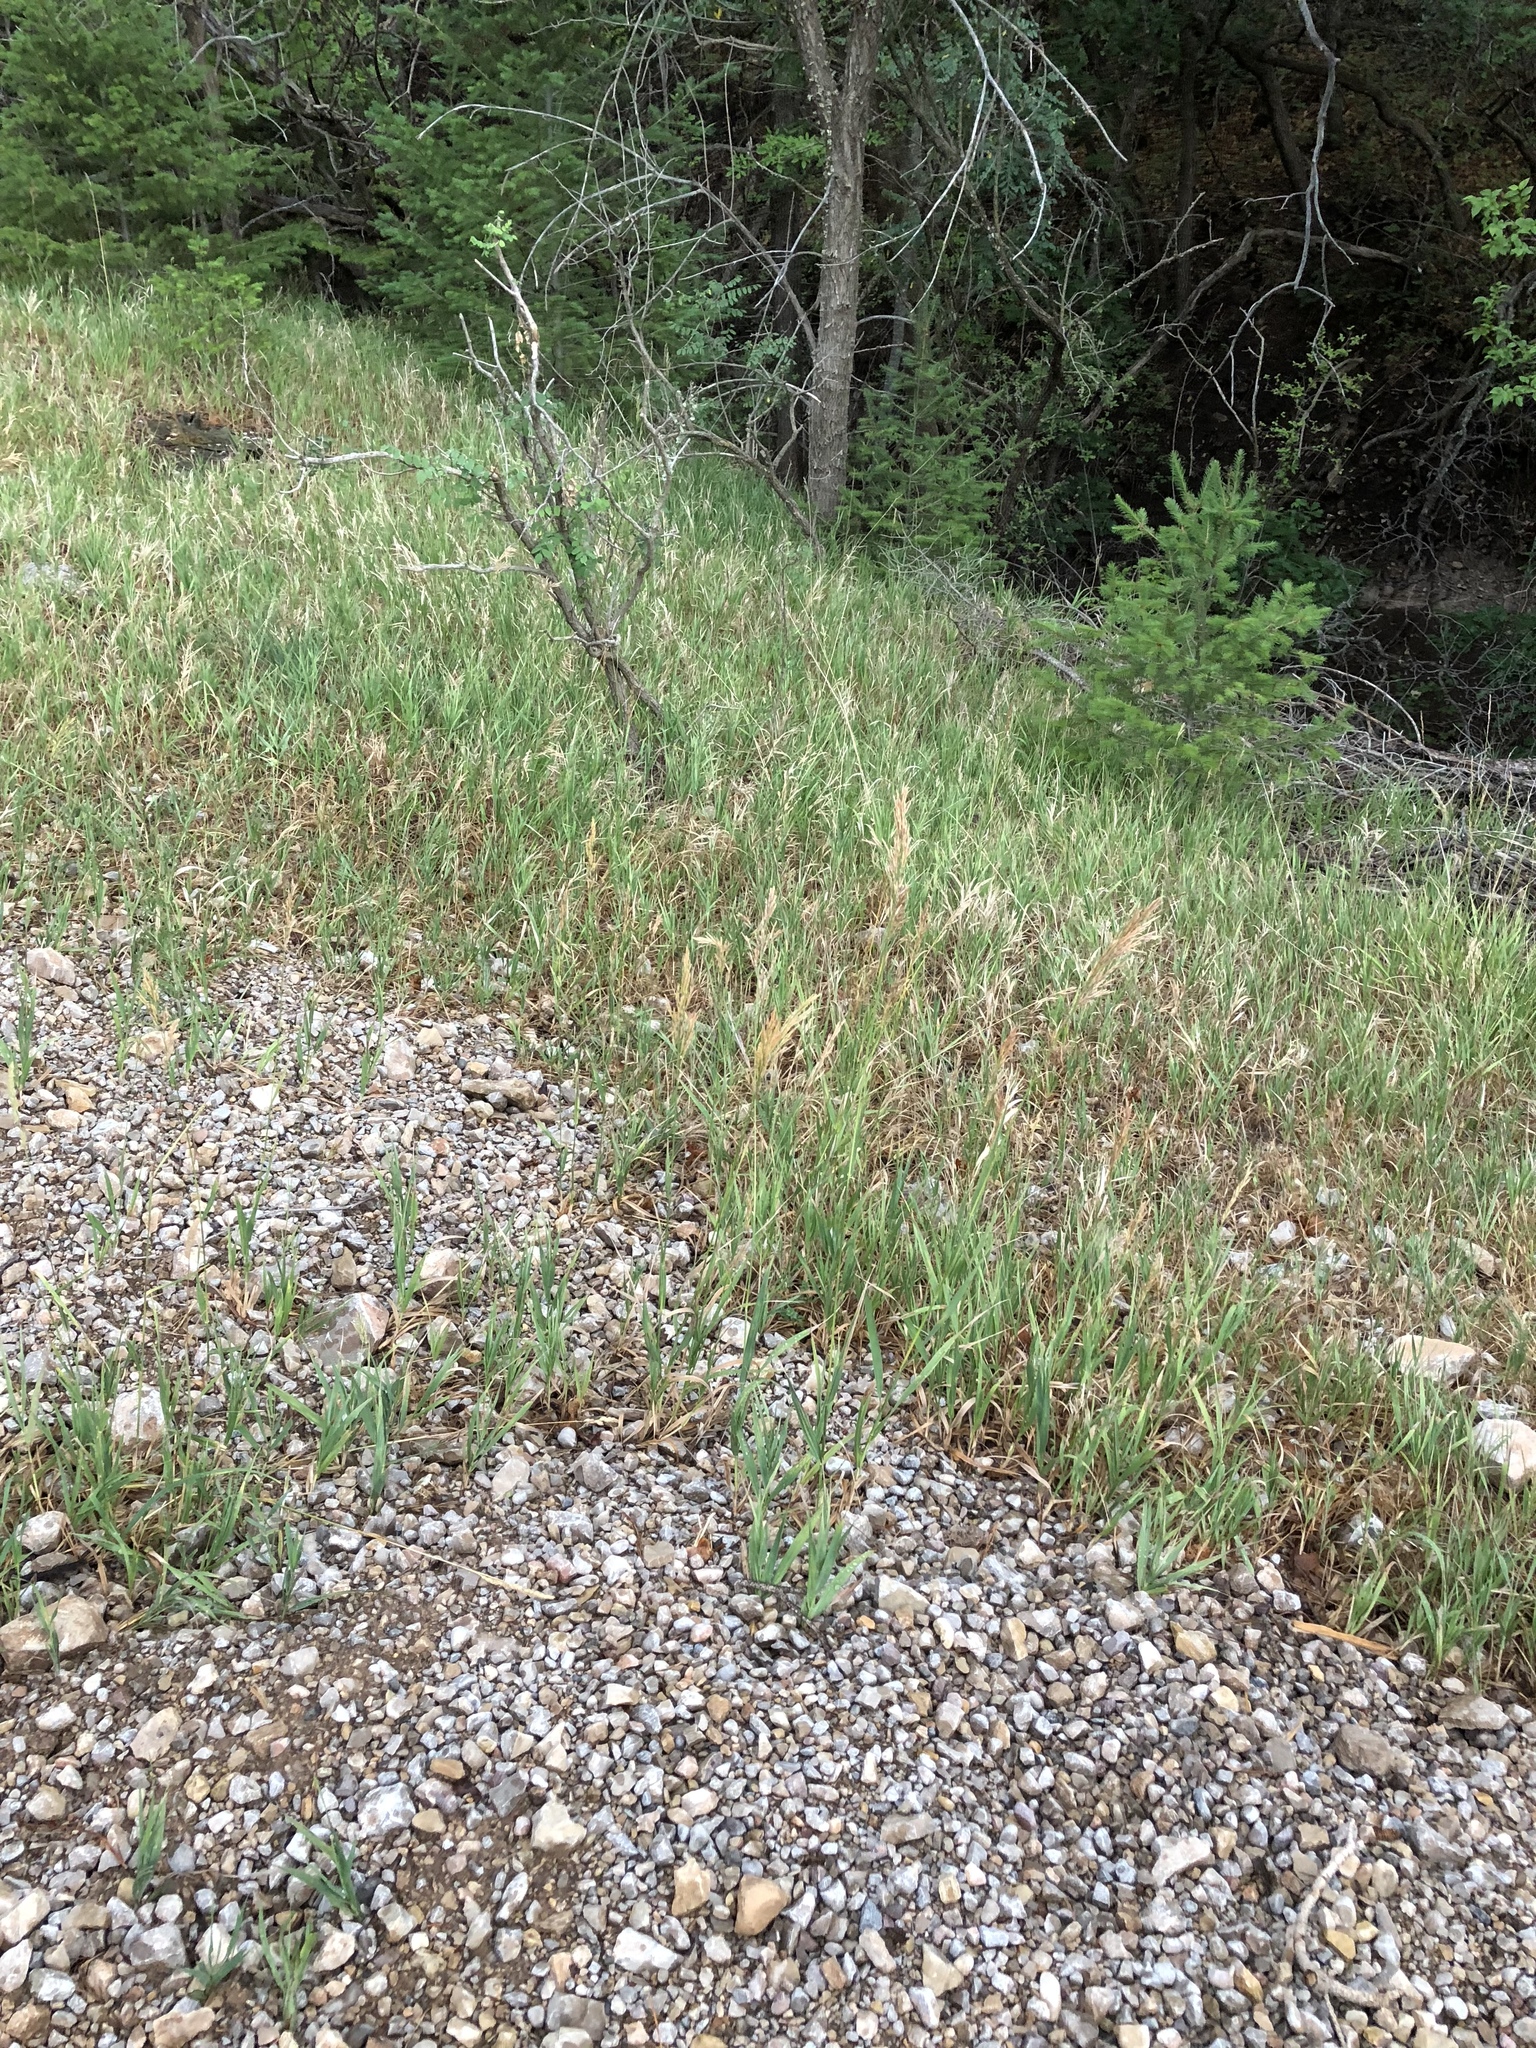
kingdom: Plantae
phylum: Tracheophyta
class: Liliopsida
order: Poales
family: Poaceae
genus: Bromus
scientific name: Bromus inermis
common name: Smooth brome
